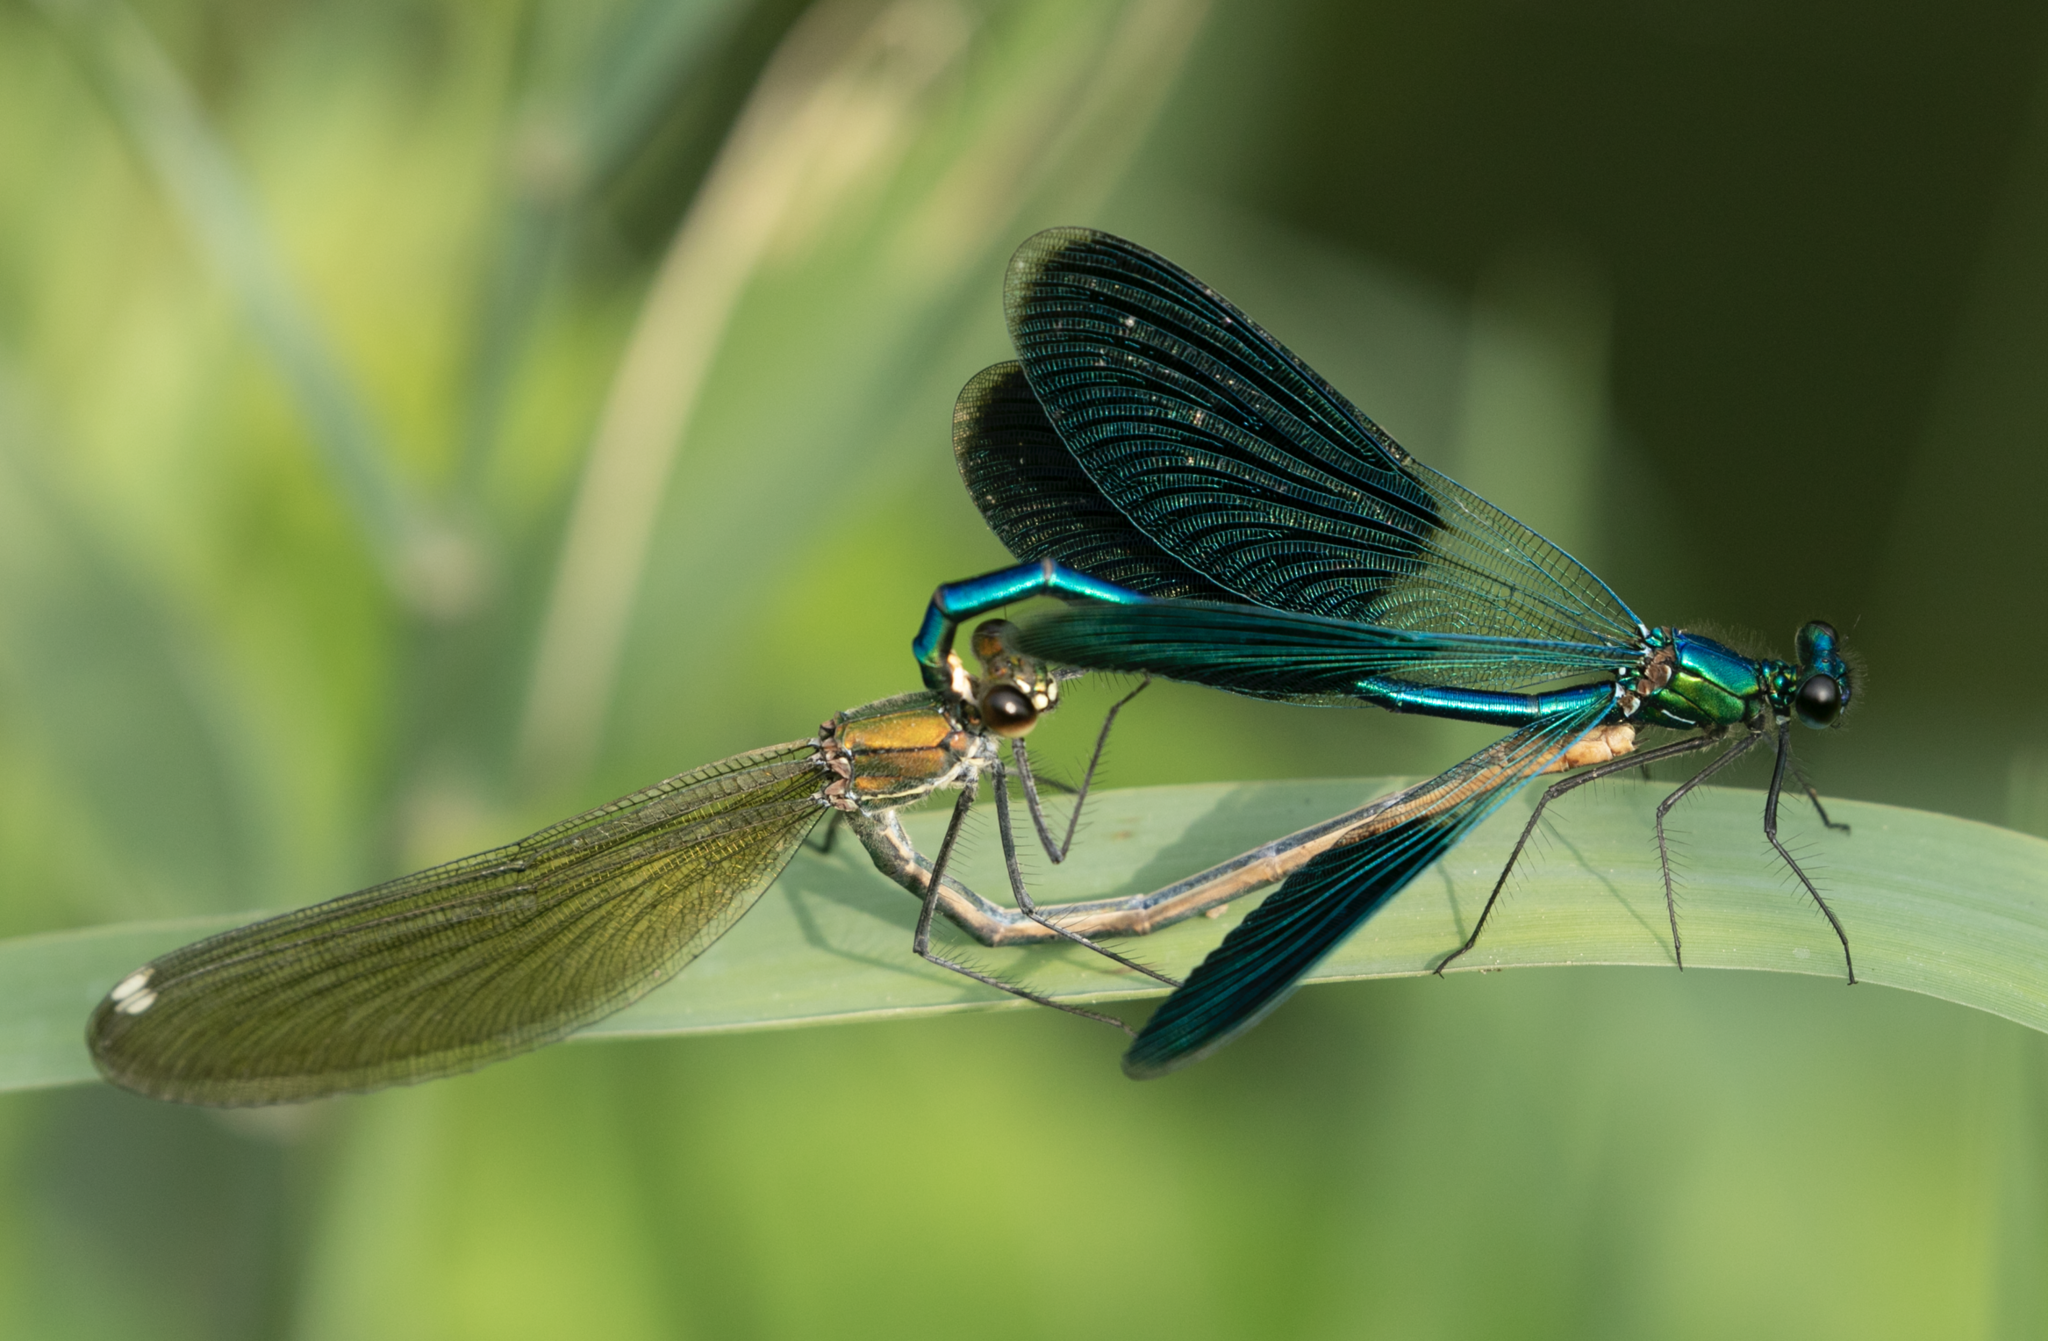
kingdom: Animalia
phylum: Arthropoda
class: Insecta
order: Odonata
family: Calopterygidae
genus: Calopteryx
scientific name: Calopteryx splendens
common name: Banded demoiselle
